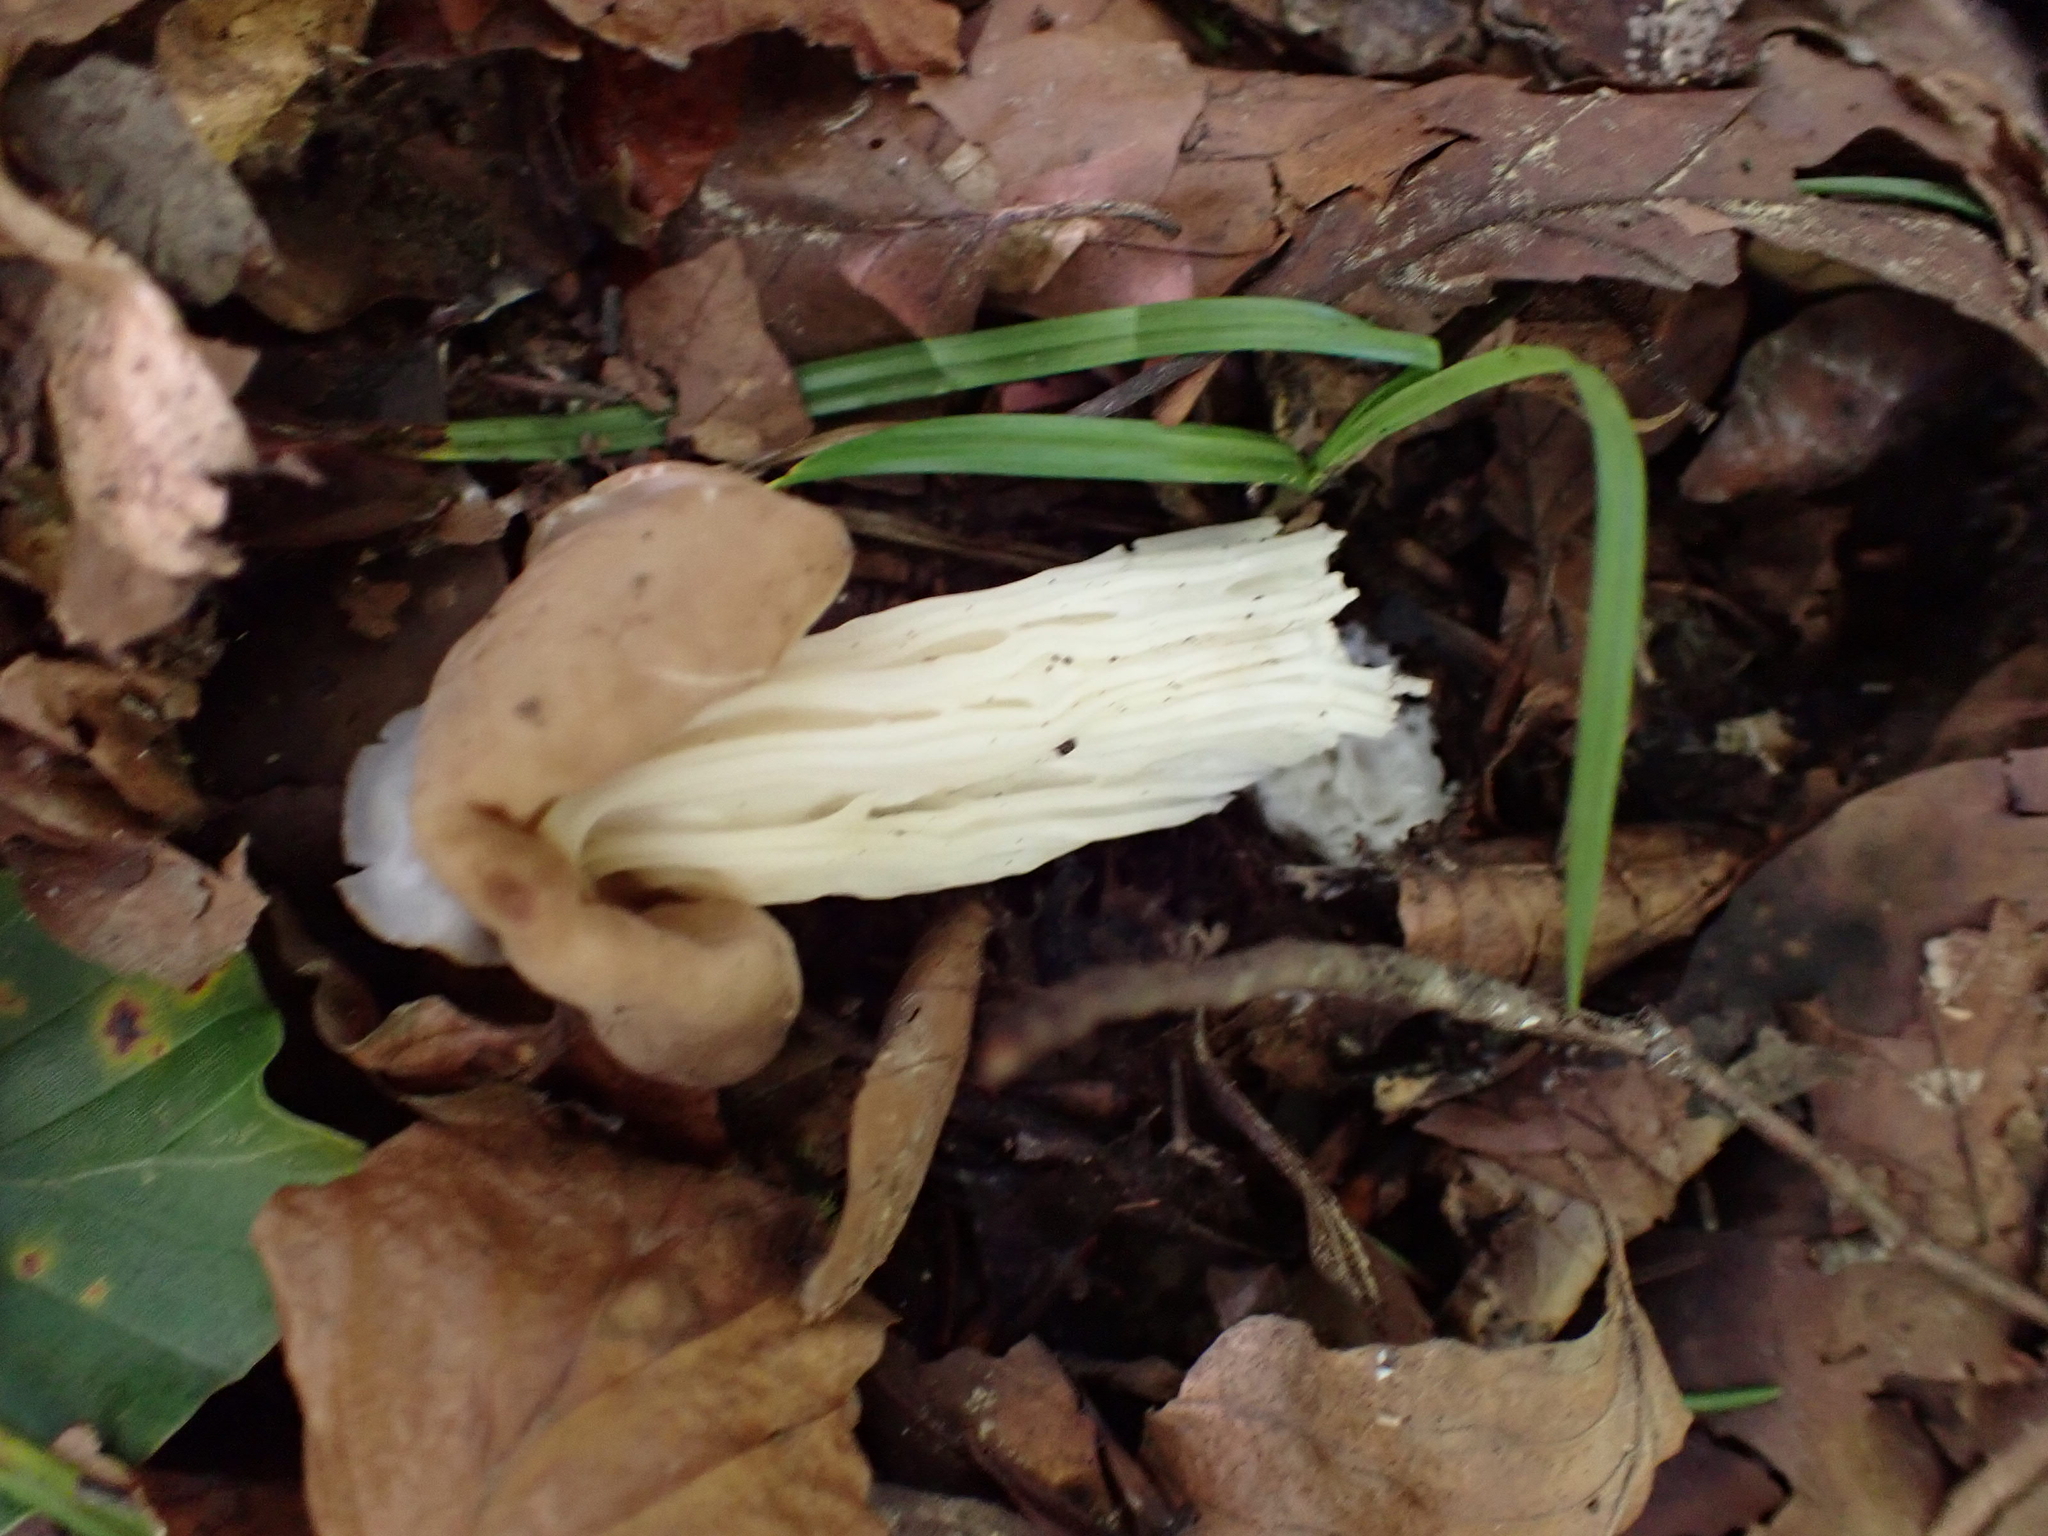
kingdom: Fungi
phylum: Ascomycota
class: Pezizomycetes
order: Pezizales
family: Helvellaceae
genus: Helvella
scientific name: Helvella crispa
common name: White saddle
